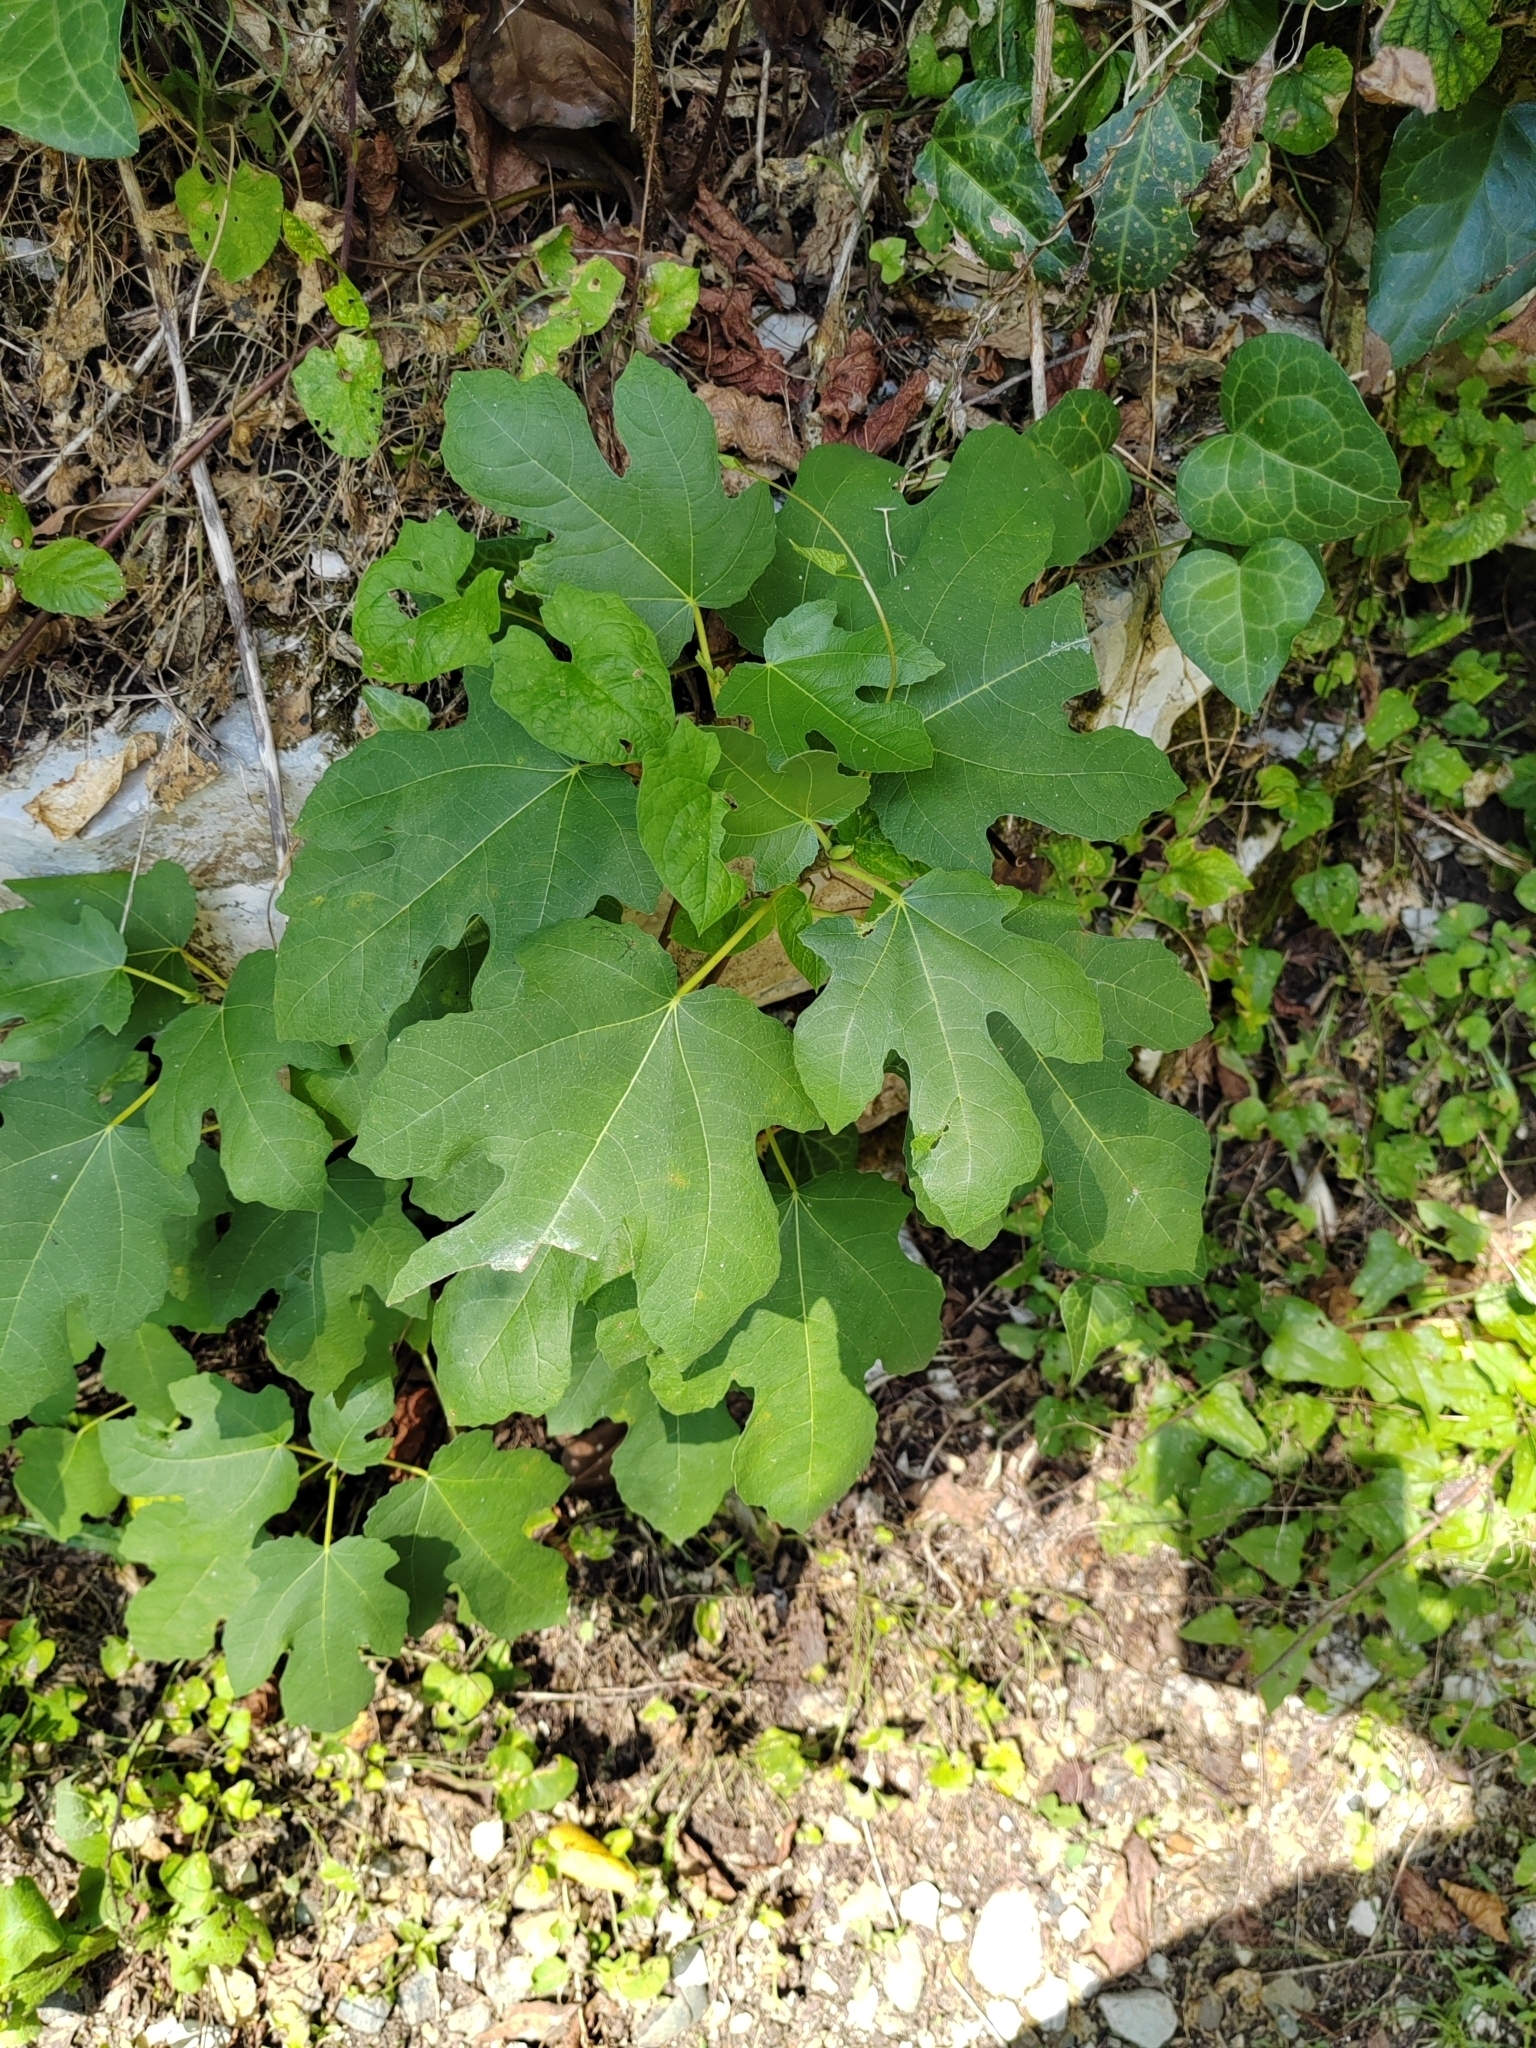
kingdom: Plantae
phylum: Tracheophyta
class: Magnoliopsida
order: Rosales
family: Moraceae
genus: Ficus
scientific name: Ficus carica
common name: Fig
